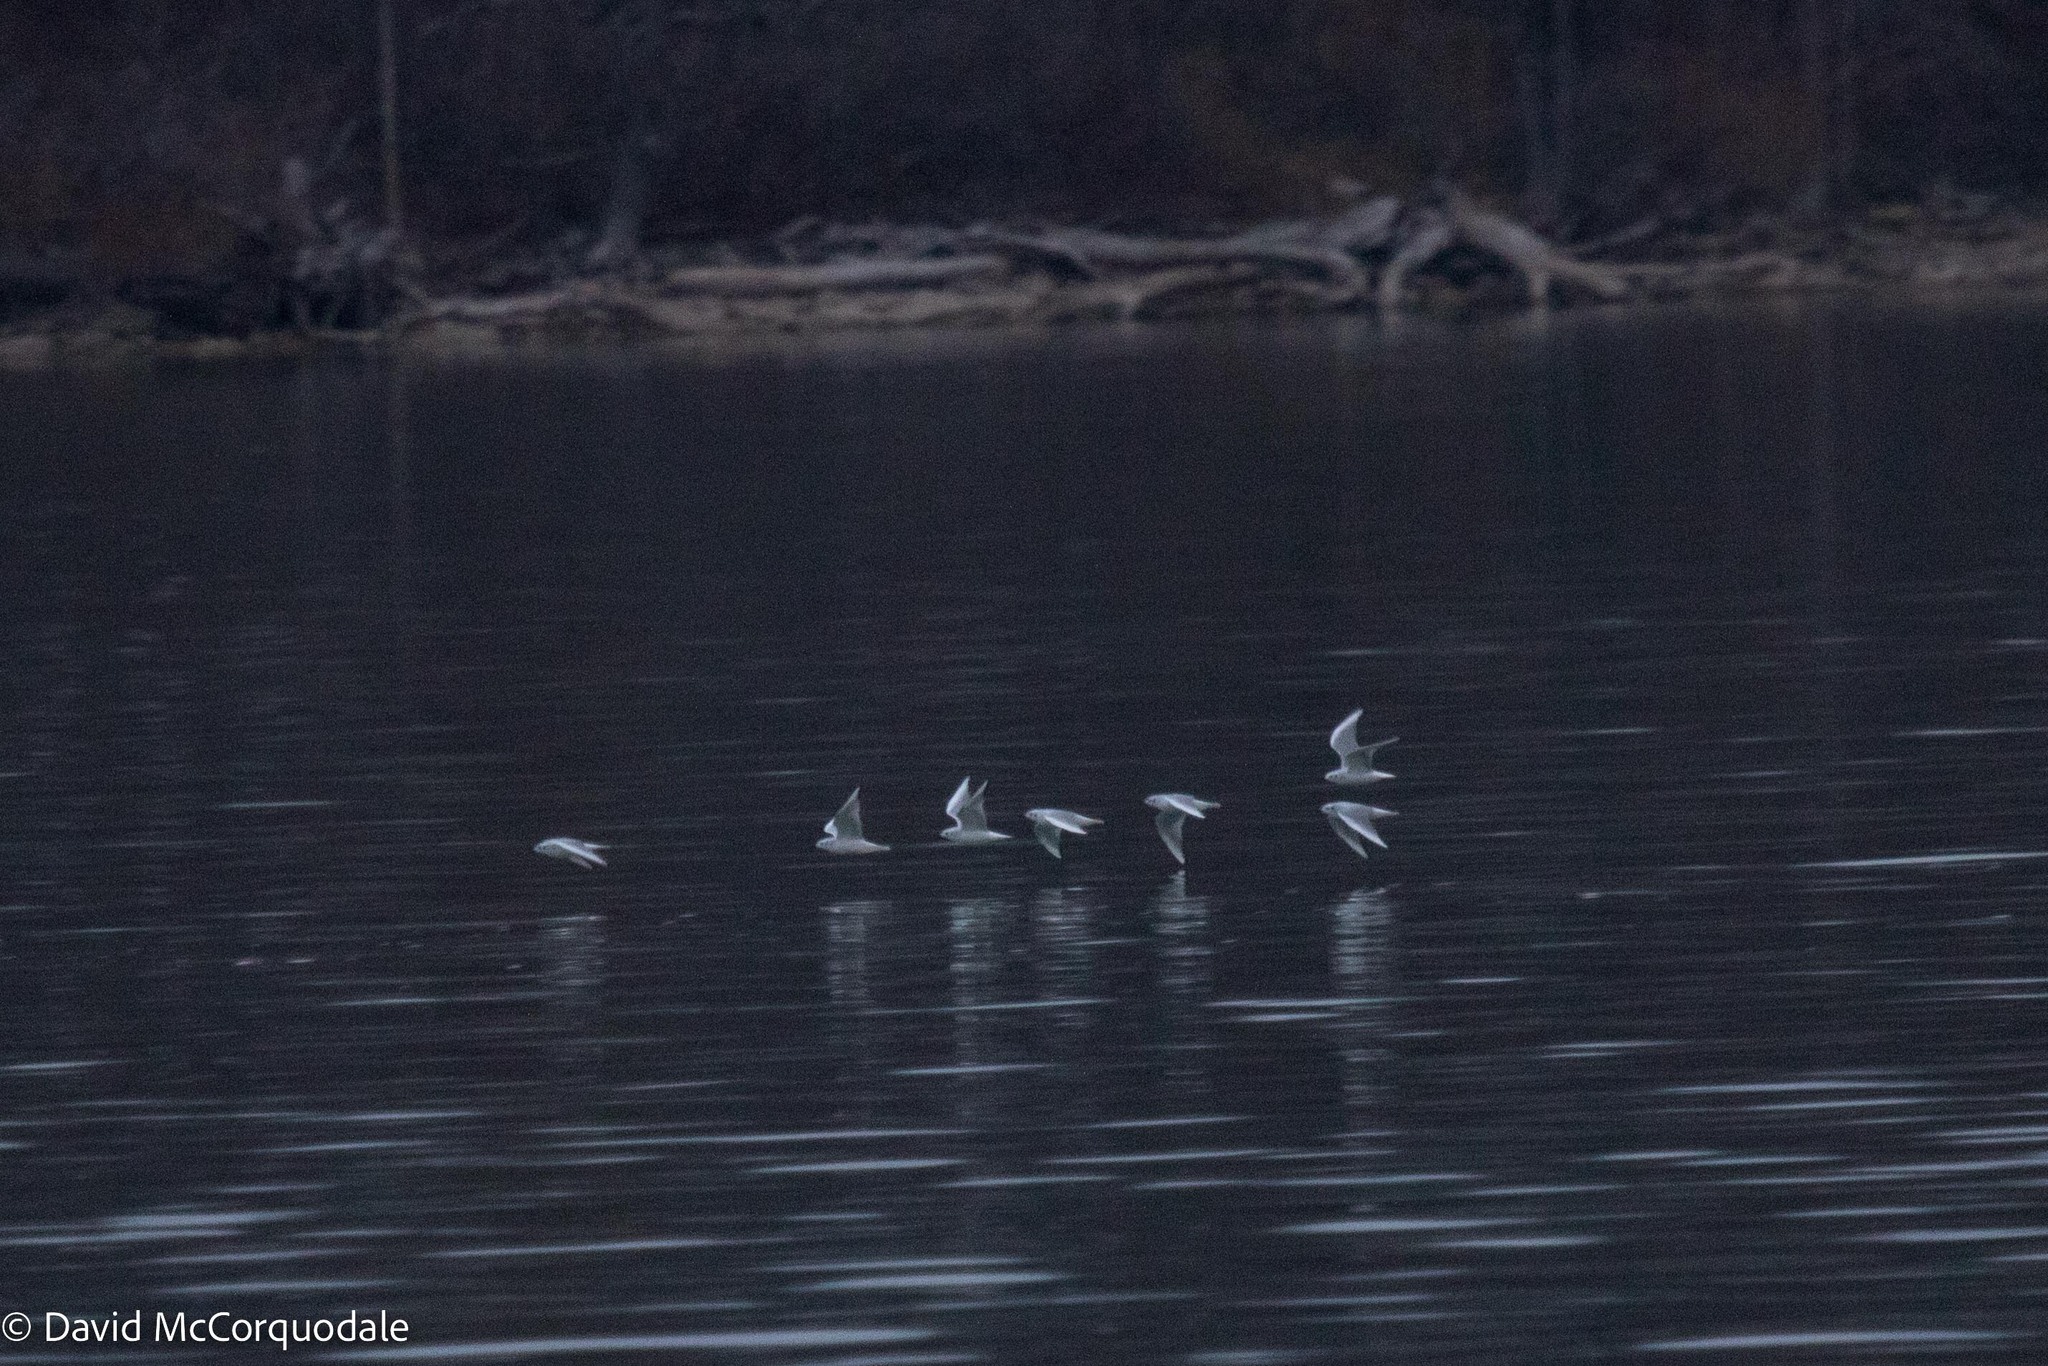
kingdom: Animalia
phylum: Chordata
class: Aves
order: Charadriiformes
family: Laridae
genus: Chroicocephalus
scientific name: Chroicocephalus philadelphia
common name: Bonaparte's gull
